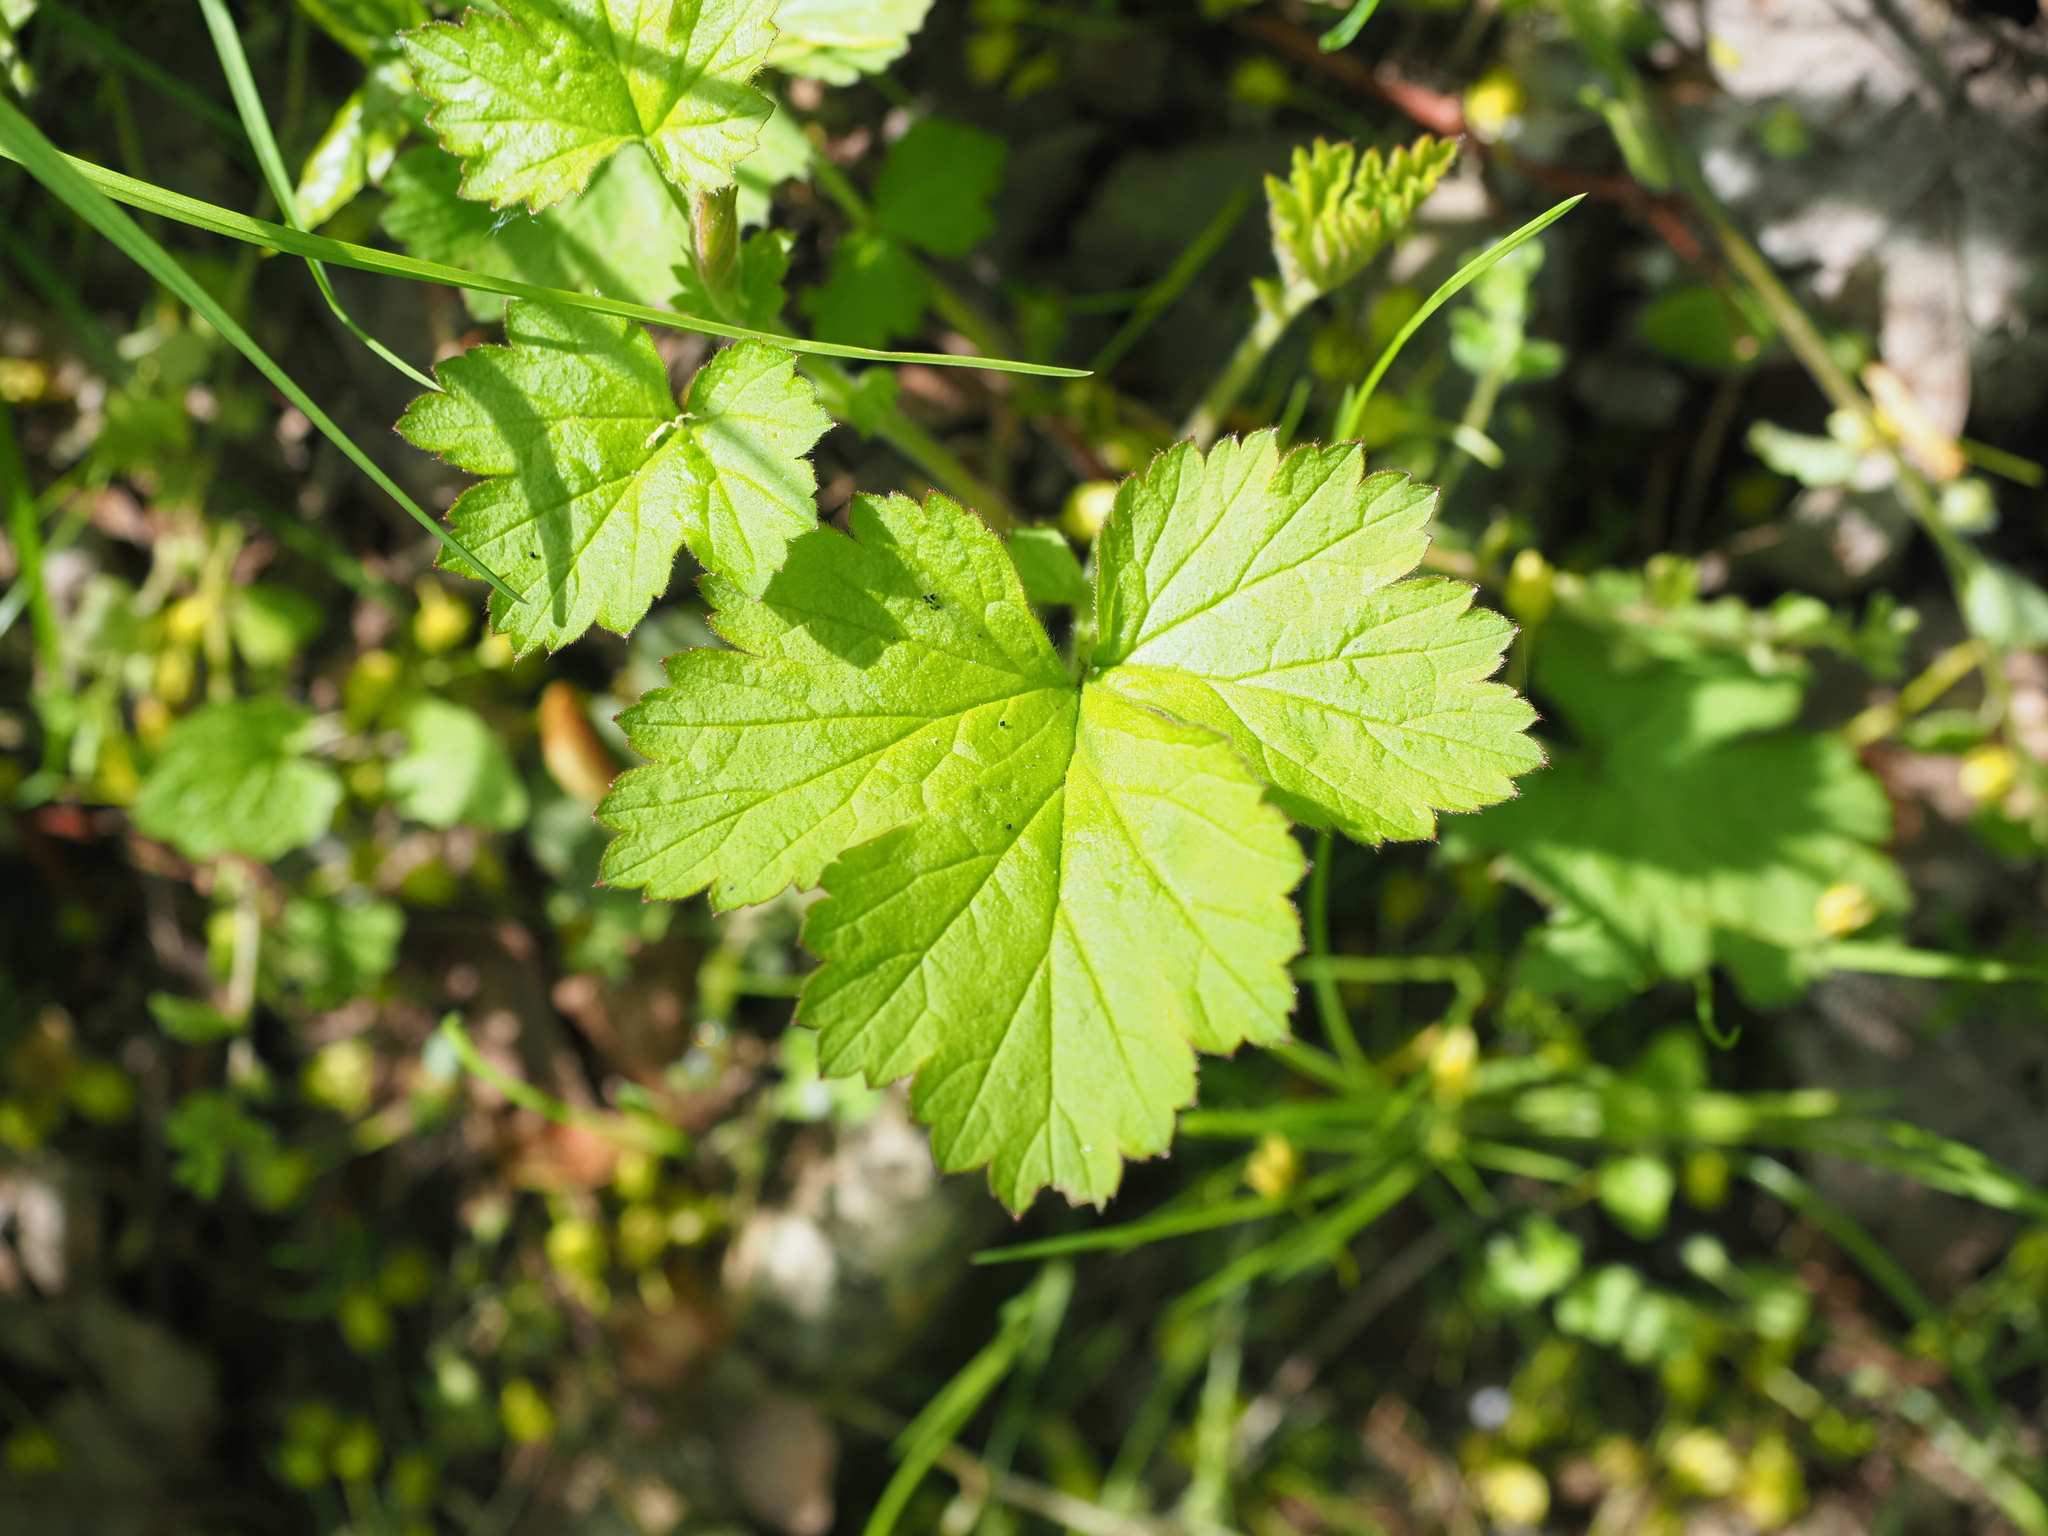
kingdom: Plantae
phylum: Tracheophyta
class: Magnoliopsida
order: Rosales
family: Rosaceae
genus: Geum
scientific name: Geum urbanum
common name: Wood avens
